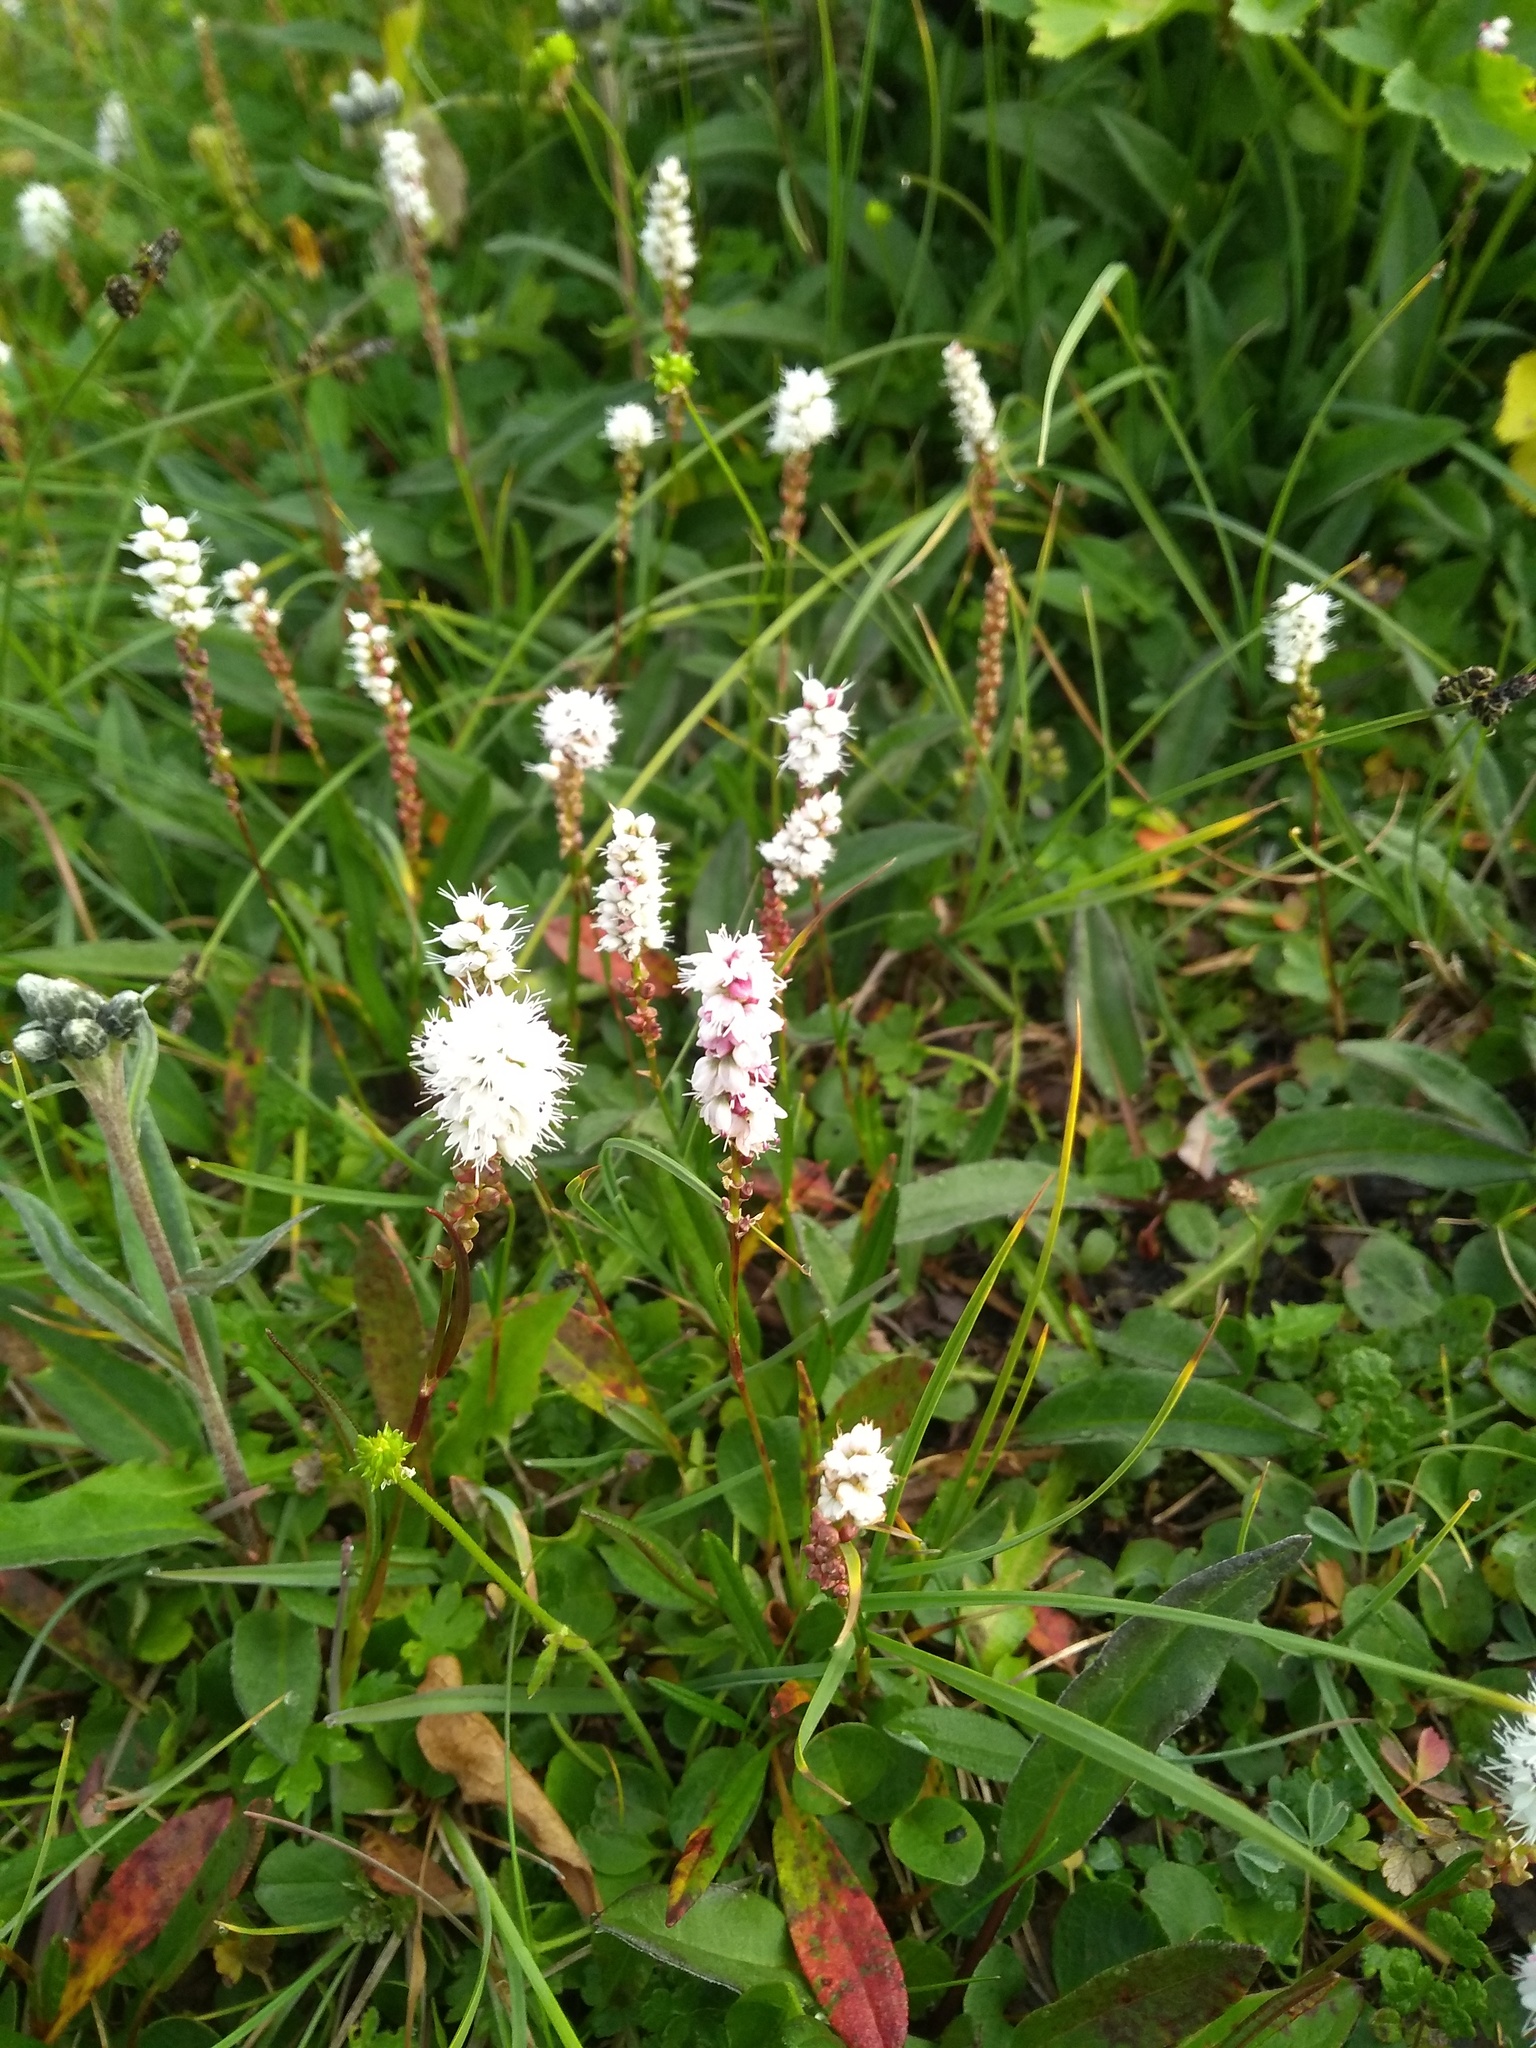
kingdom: Plantae
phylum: Tracheophyta
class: Magnoliopsida
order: Caryophyllales
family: Polygonaceae
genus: Bistorta
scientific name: Bistorta vivipara
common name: Alpine bistort
